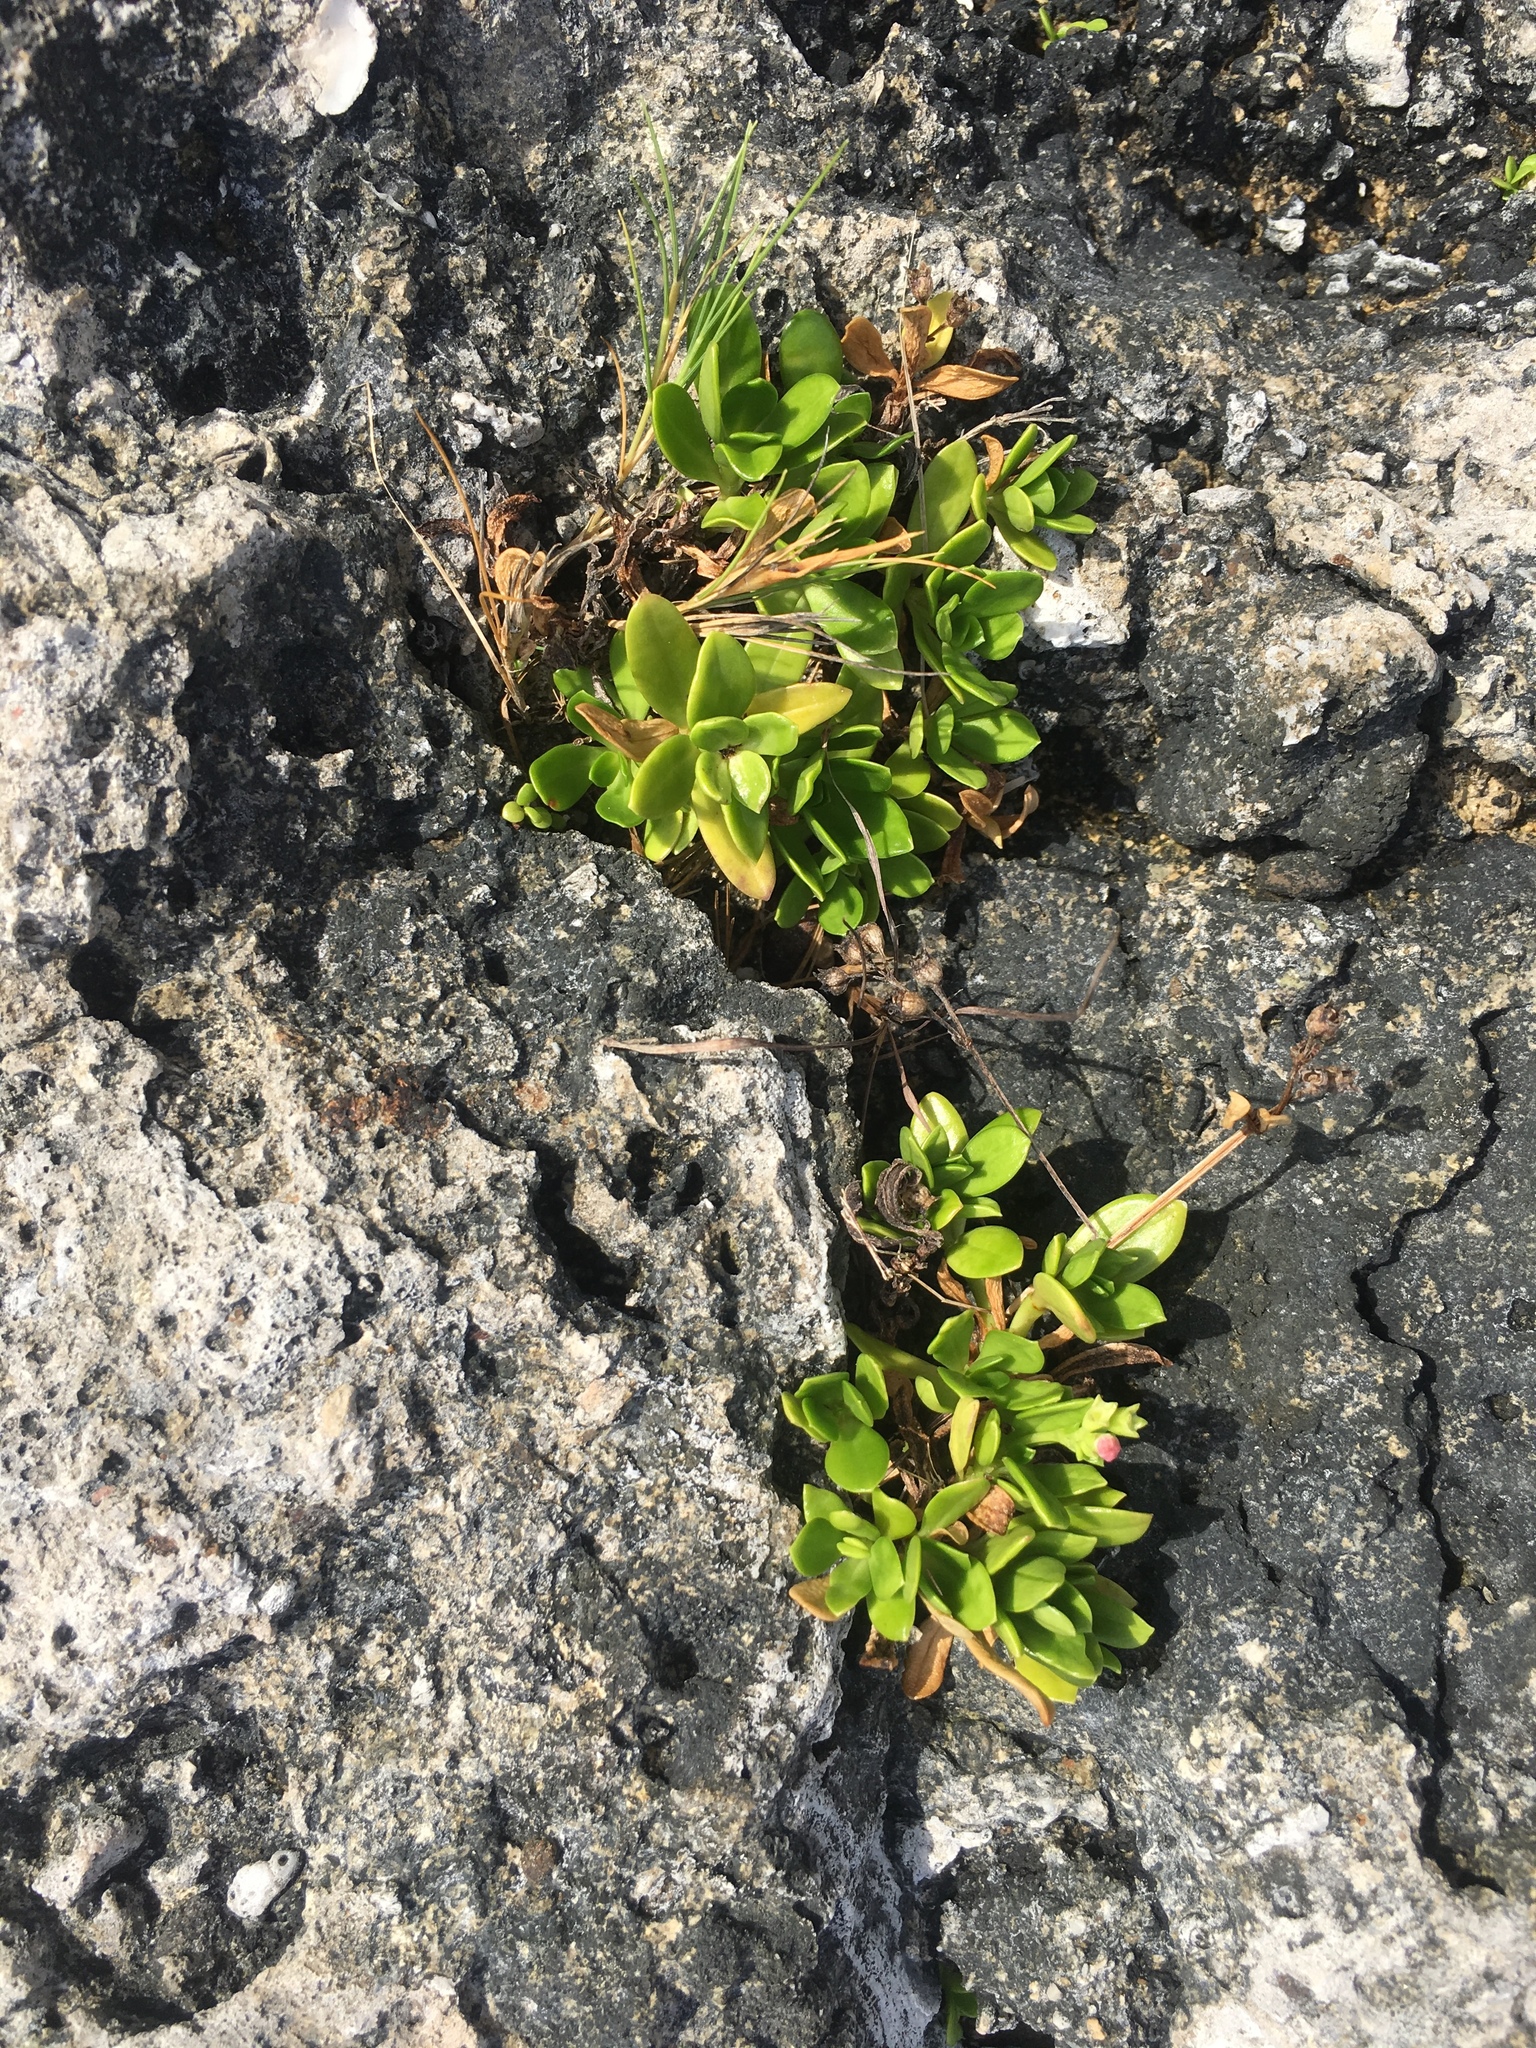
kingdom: Plantae
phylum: Tracheophyta
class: Magnoliopsida
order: Gentianales
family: Rubiaceae
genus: Leptopetalum
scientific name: Leptopetalum strigulosum
